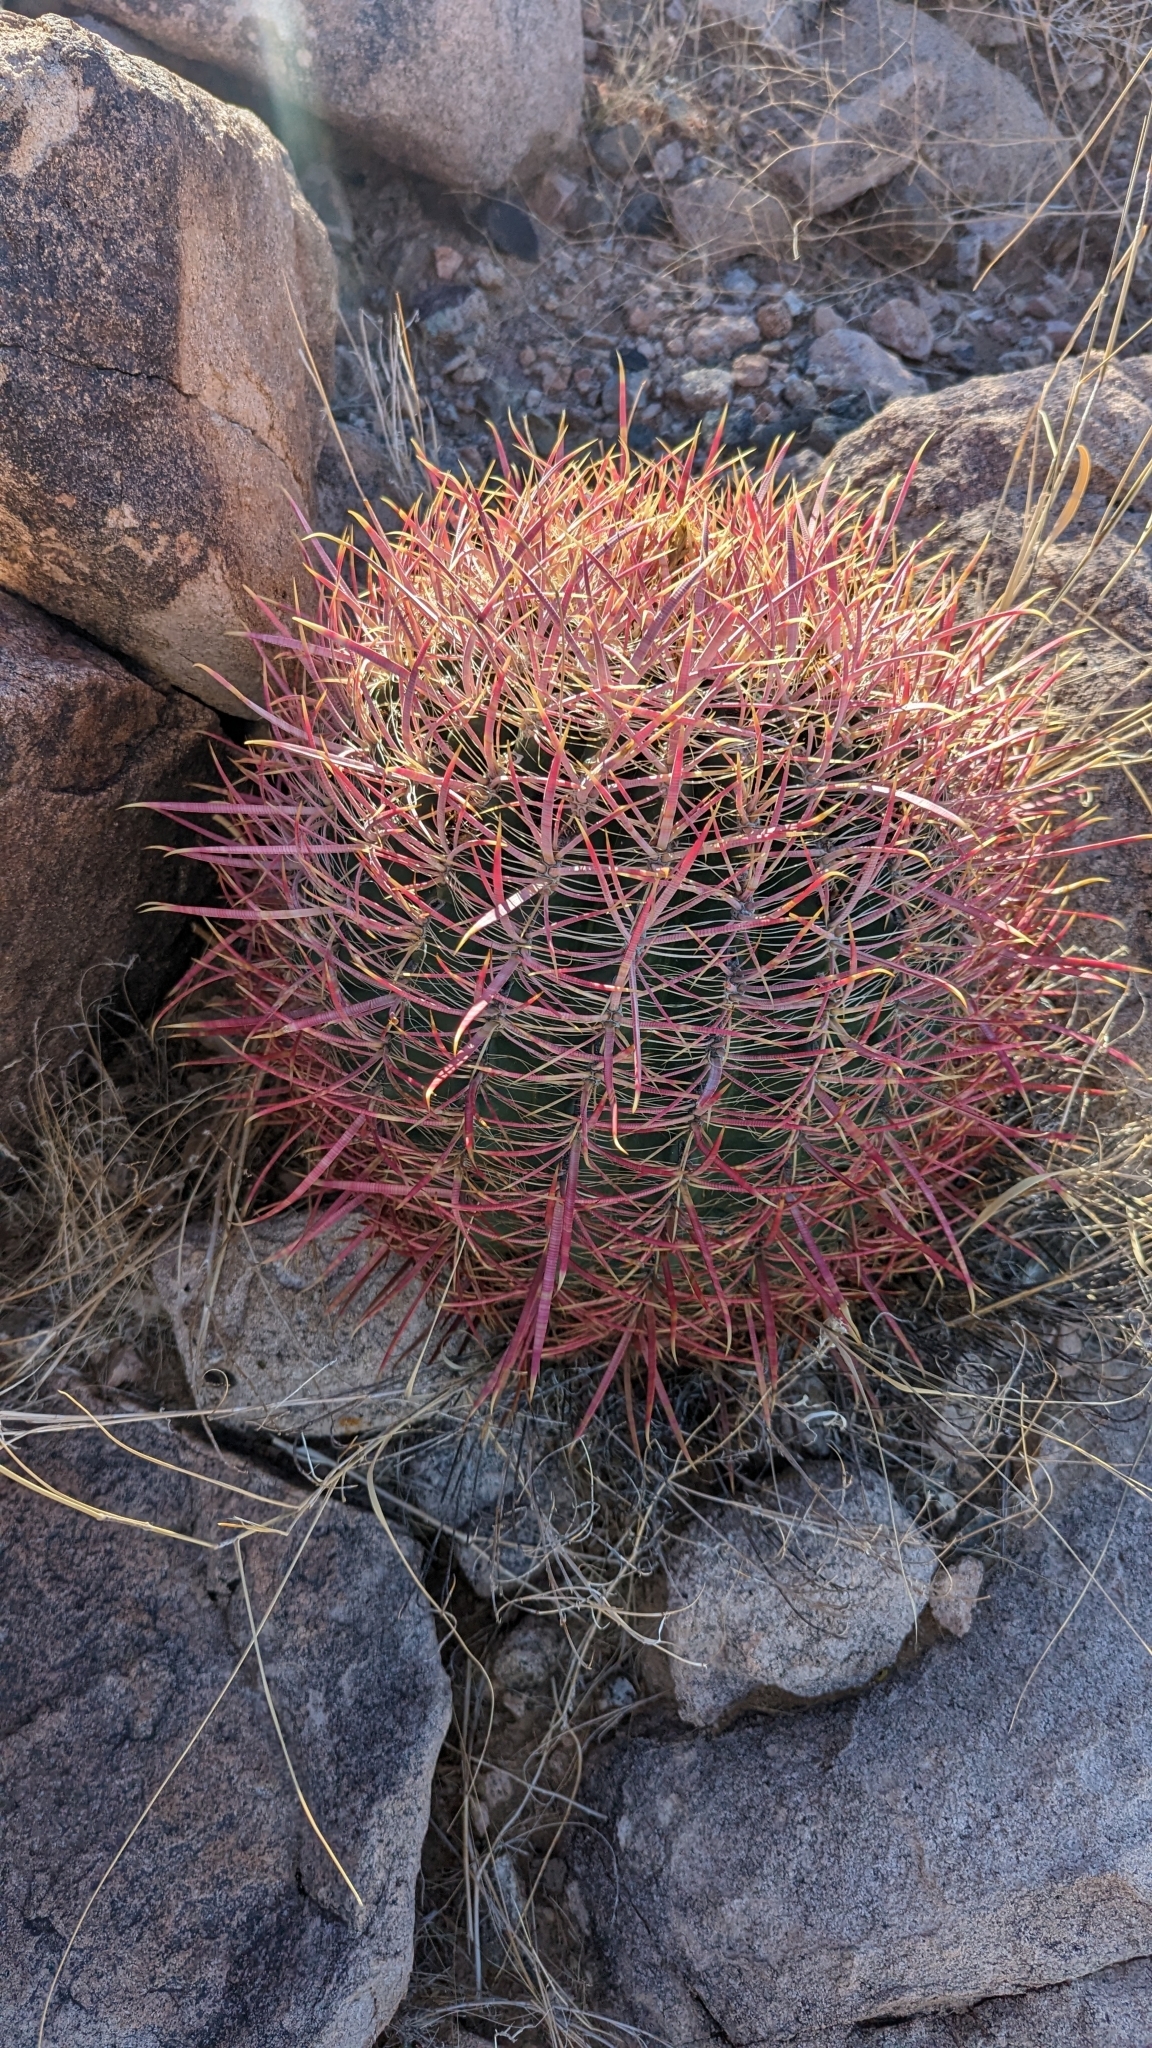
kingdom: Plantae
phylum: Tracheophyta
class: Magnoliopsida
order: Caryophyllales
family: Cactaceae
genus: Ferocactus
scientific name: Ferocactus cylindraceus
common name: California barrel cactus
